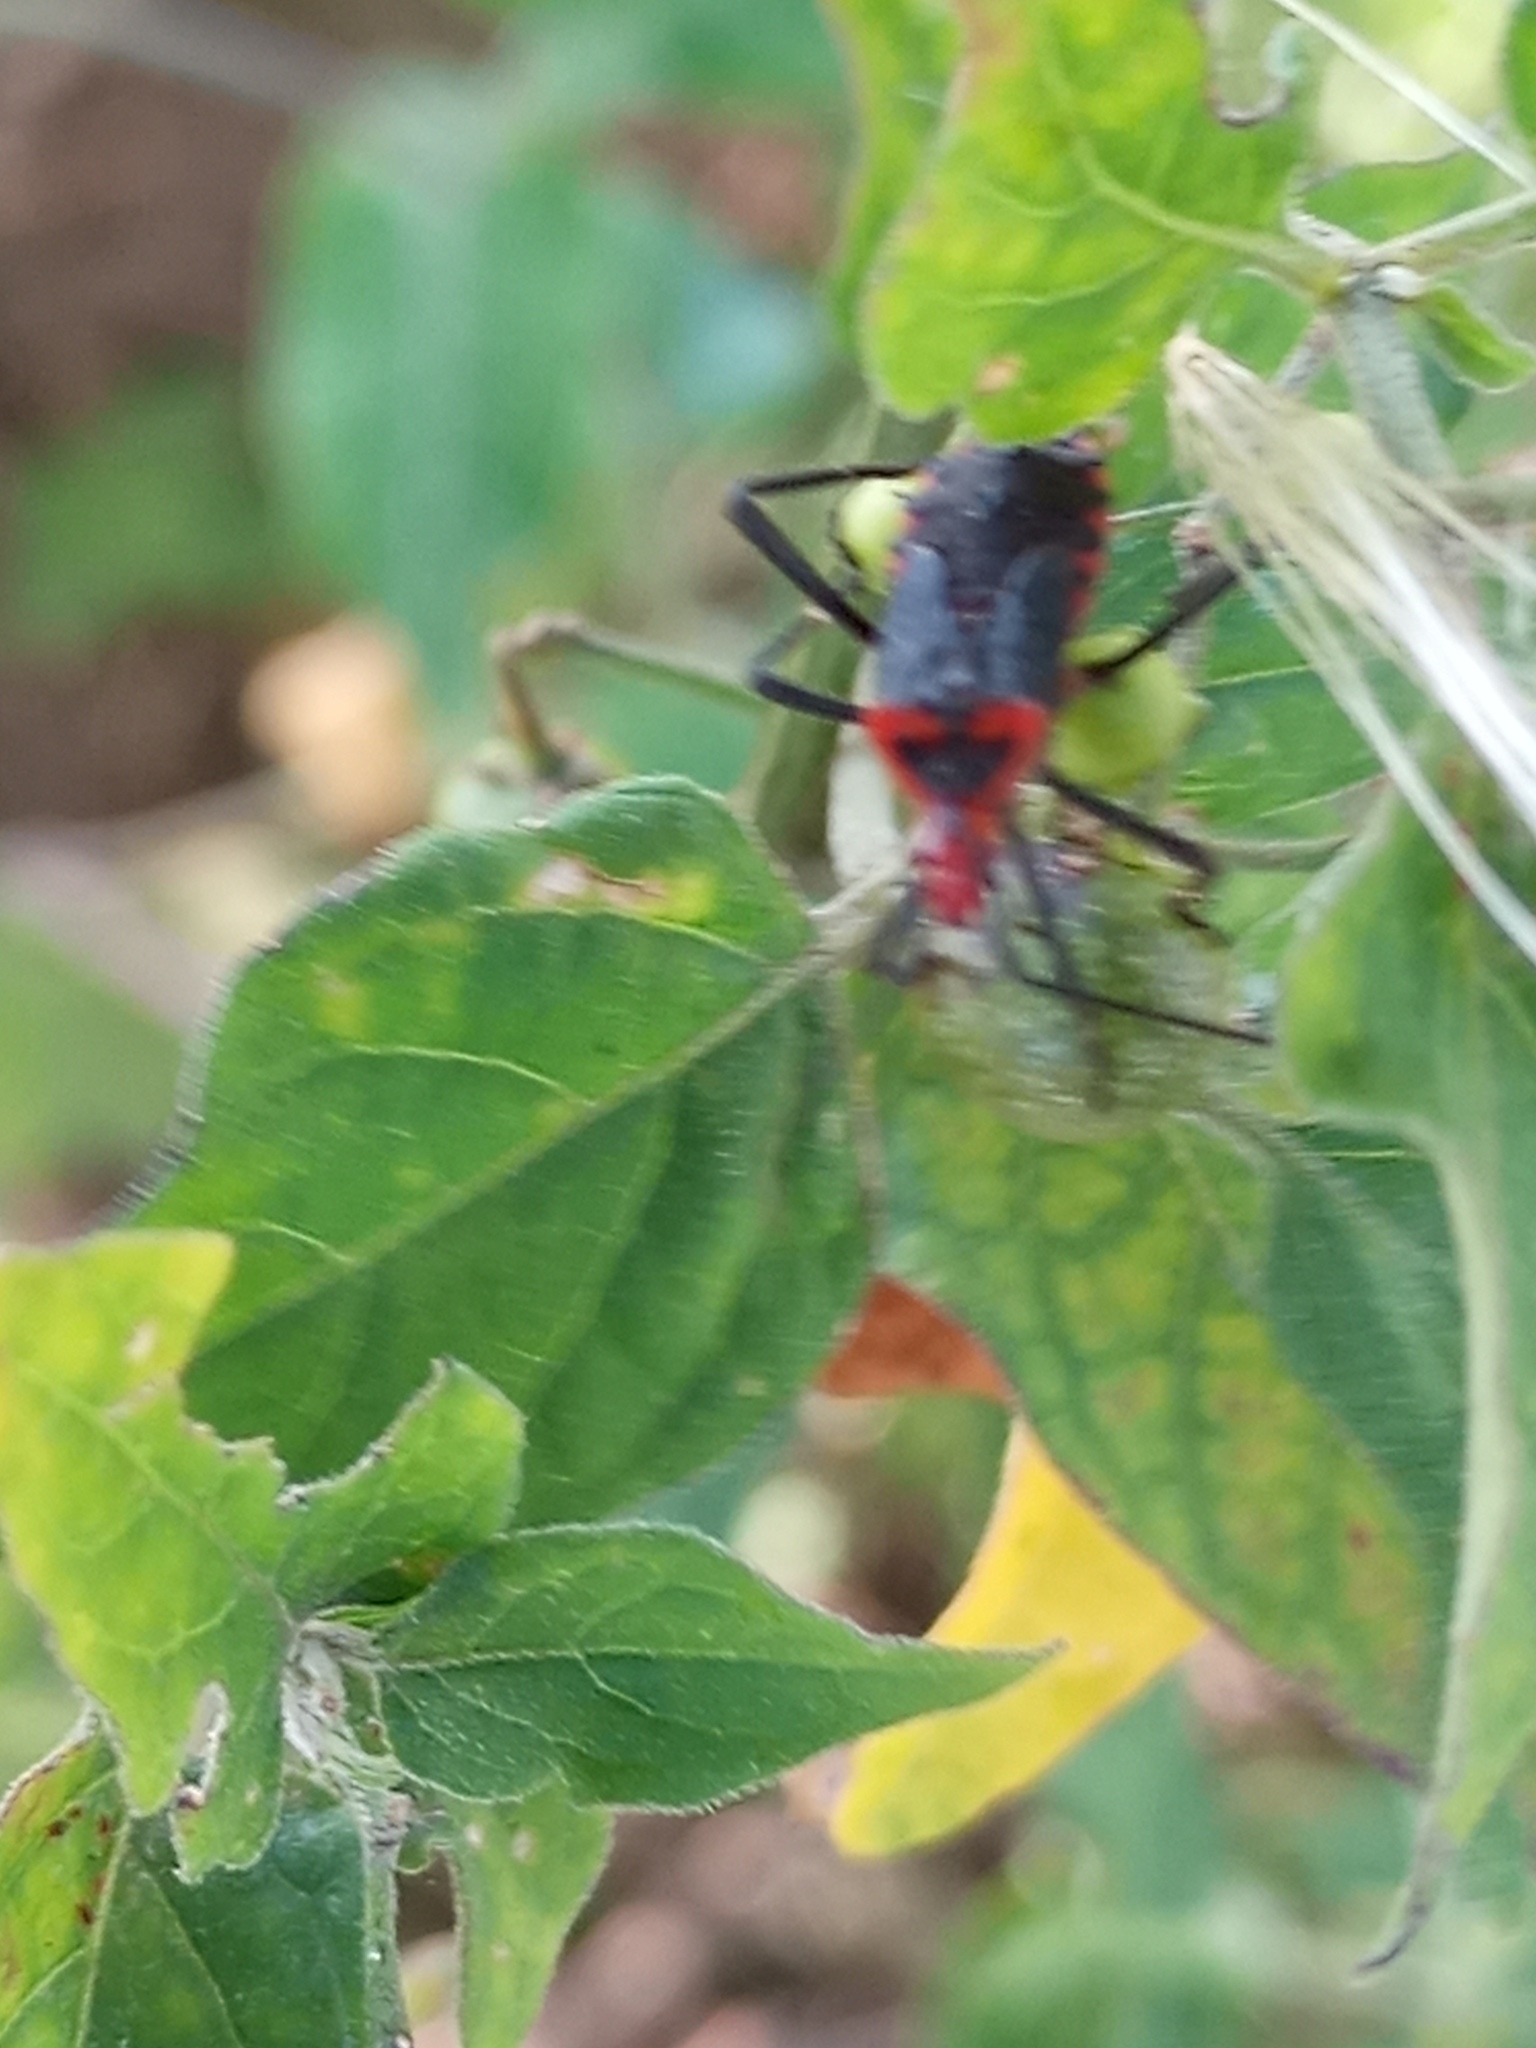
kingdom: Animalia
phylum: Arthropoda
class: Insecta
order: Hemiptera
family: Coreidae
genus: Phthiacnemia
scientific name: Phthiacnemia picta
